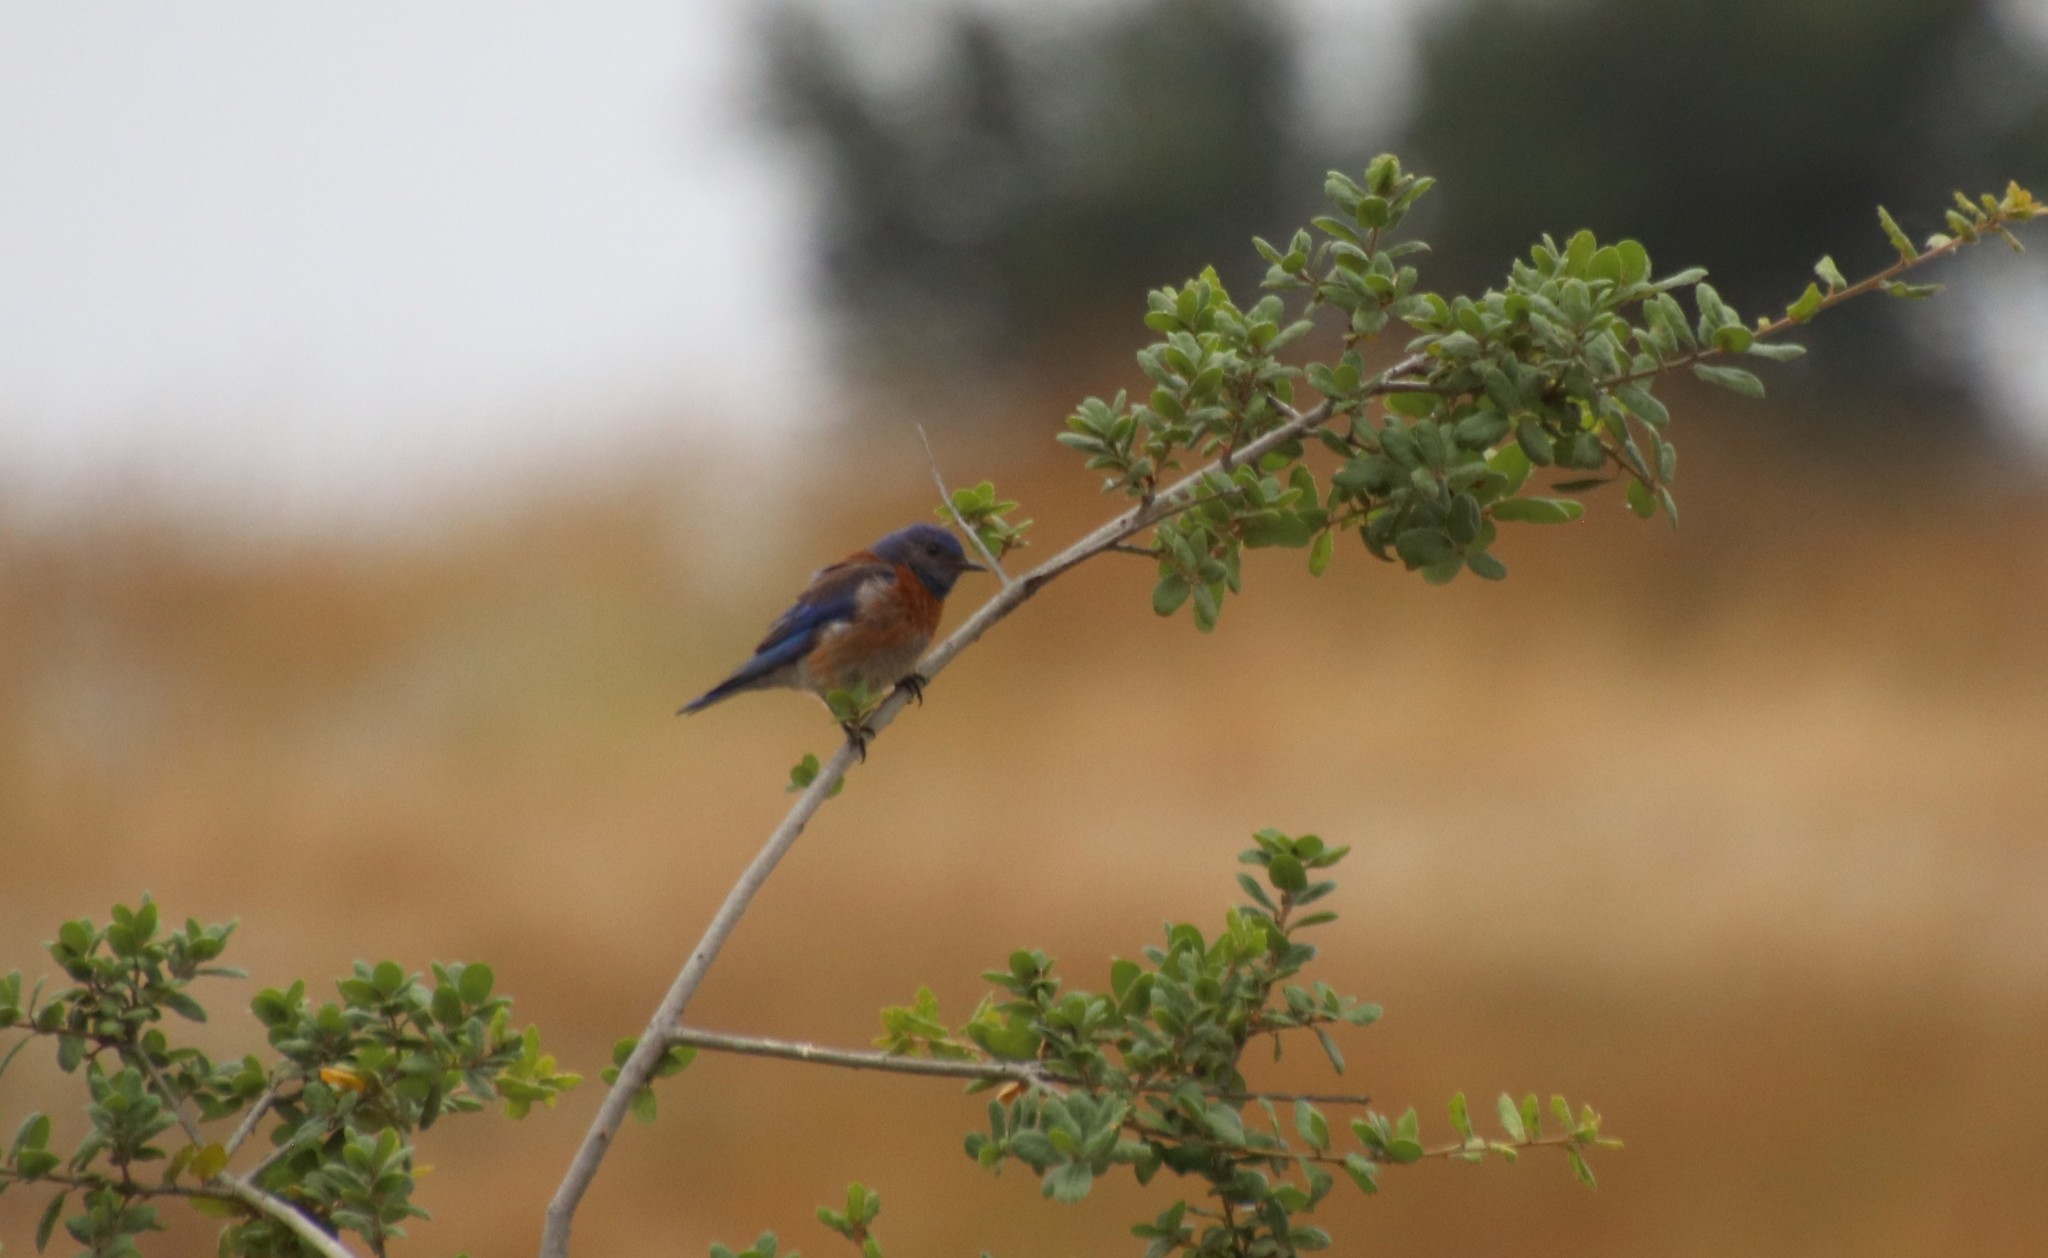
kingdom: Animalia
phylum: Chordata
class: Aves
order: Passeriformes
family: Turdidae
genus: Sialia
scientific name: Sialia mexicana
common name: Western bluebird
